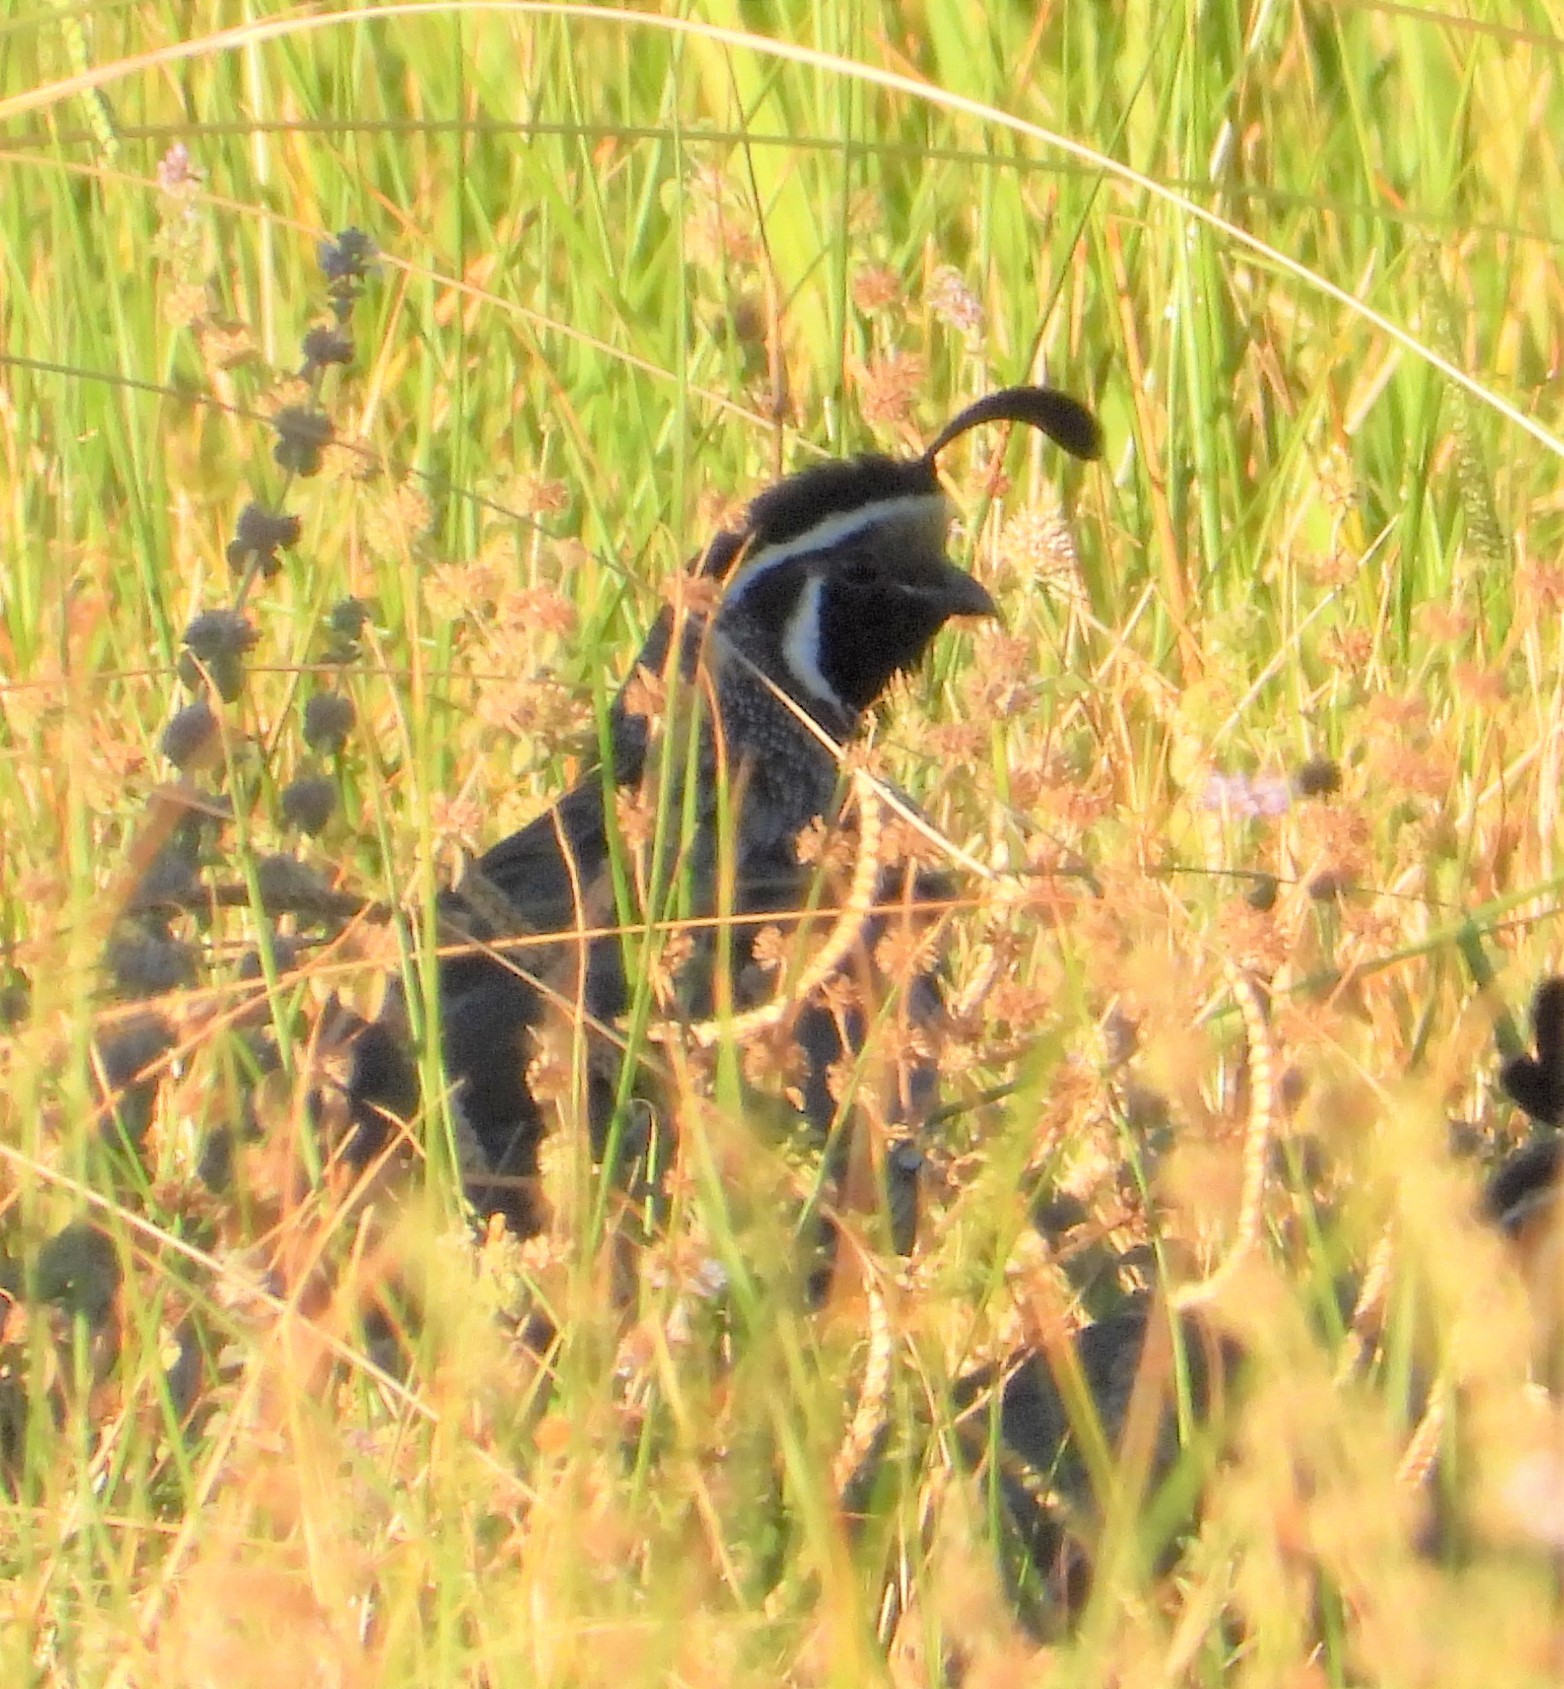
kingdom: Animalia
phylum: Chordata
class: Aves
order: Galliformes
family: Odontophoridae
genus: Callipepla
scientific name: Callipepla californica
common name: California quail
